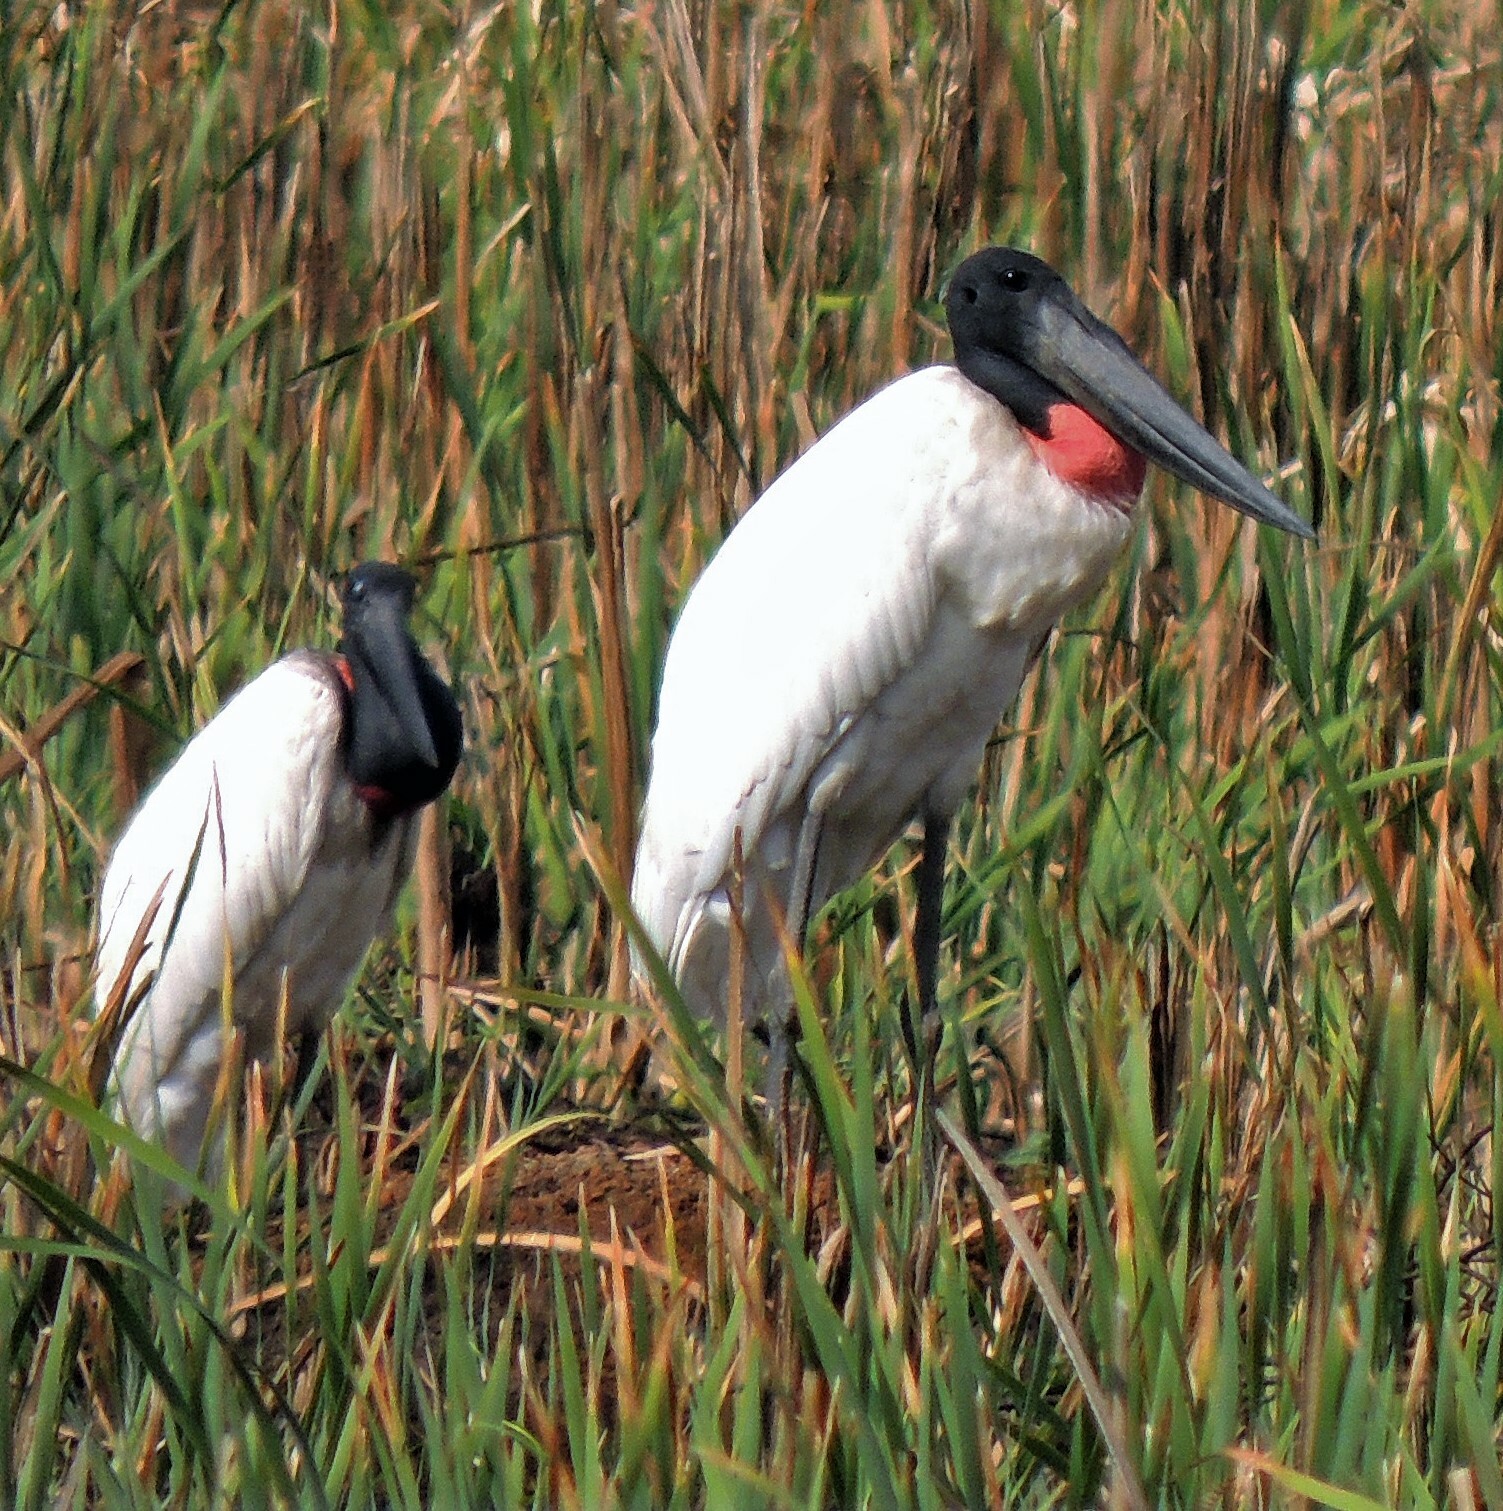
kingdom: Animalia
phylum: Chordata
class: Aves
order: Ciconiiformes
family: Ciconiidae
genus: Jabiru
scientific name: Jabiru mycteria
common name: Jabiru
